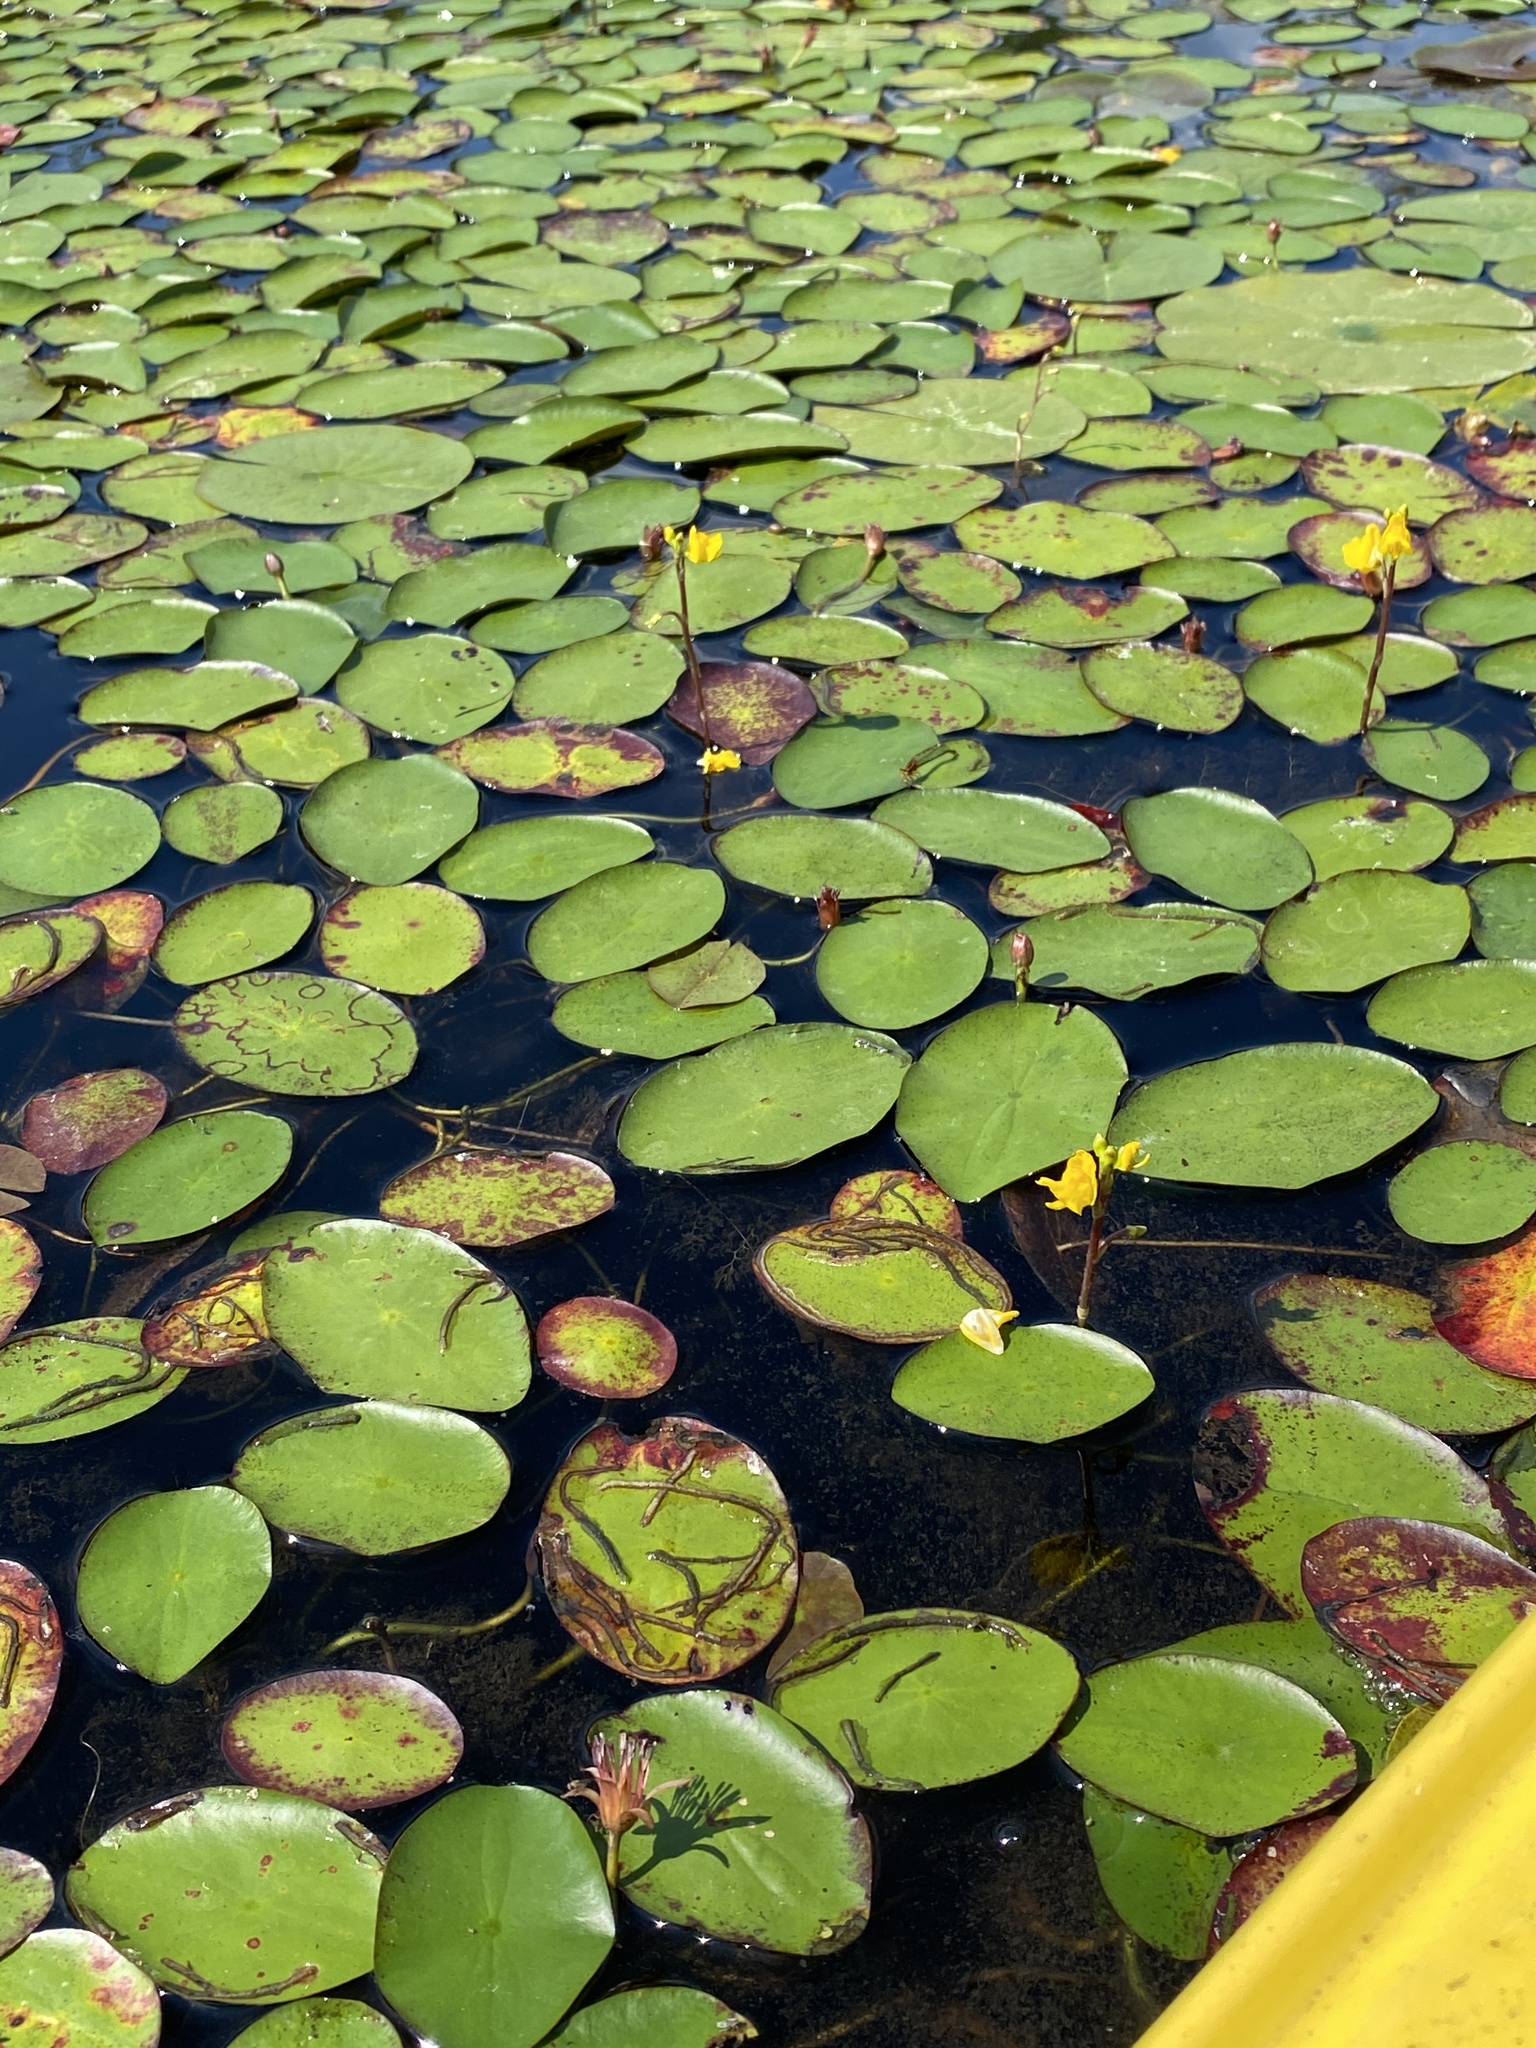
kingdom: Plantae
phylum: Tracheophyta
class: Magnoliopsida
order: Nymphaeales
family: Cabombaceae
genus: Brasenia
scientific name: Brasenia schreberi
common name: Water-shield
